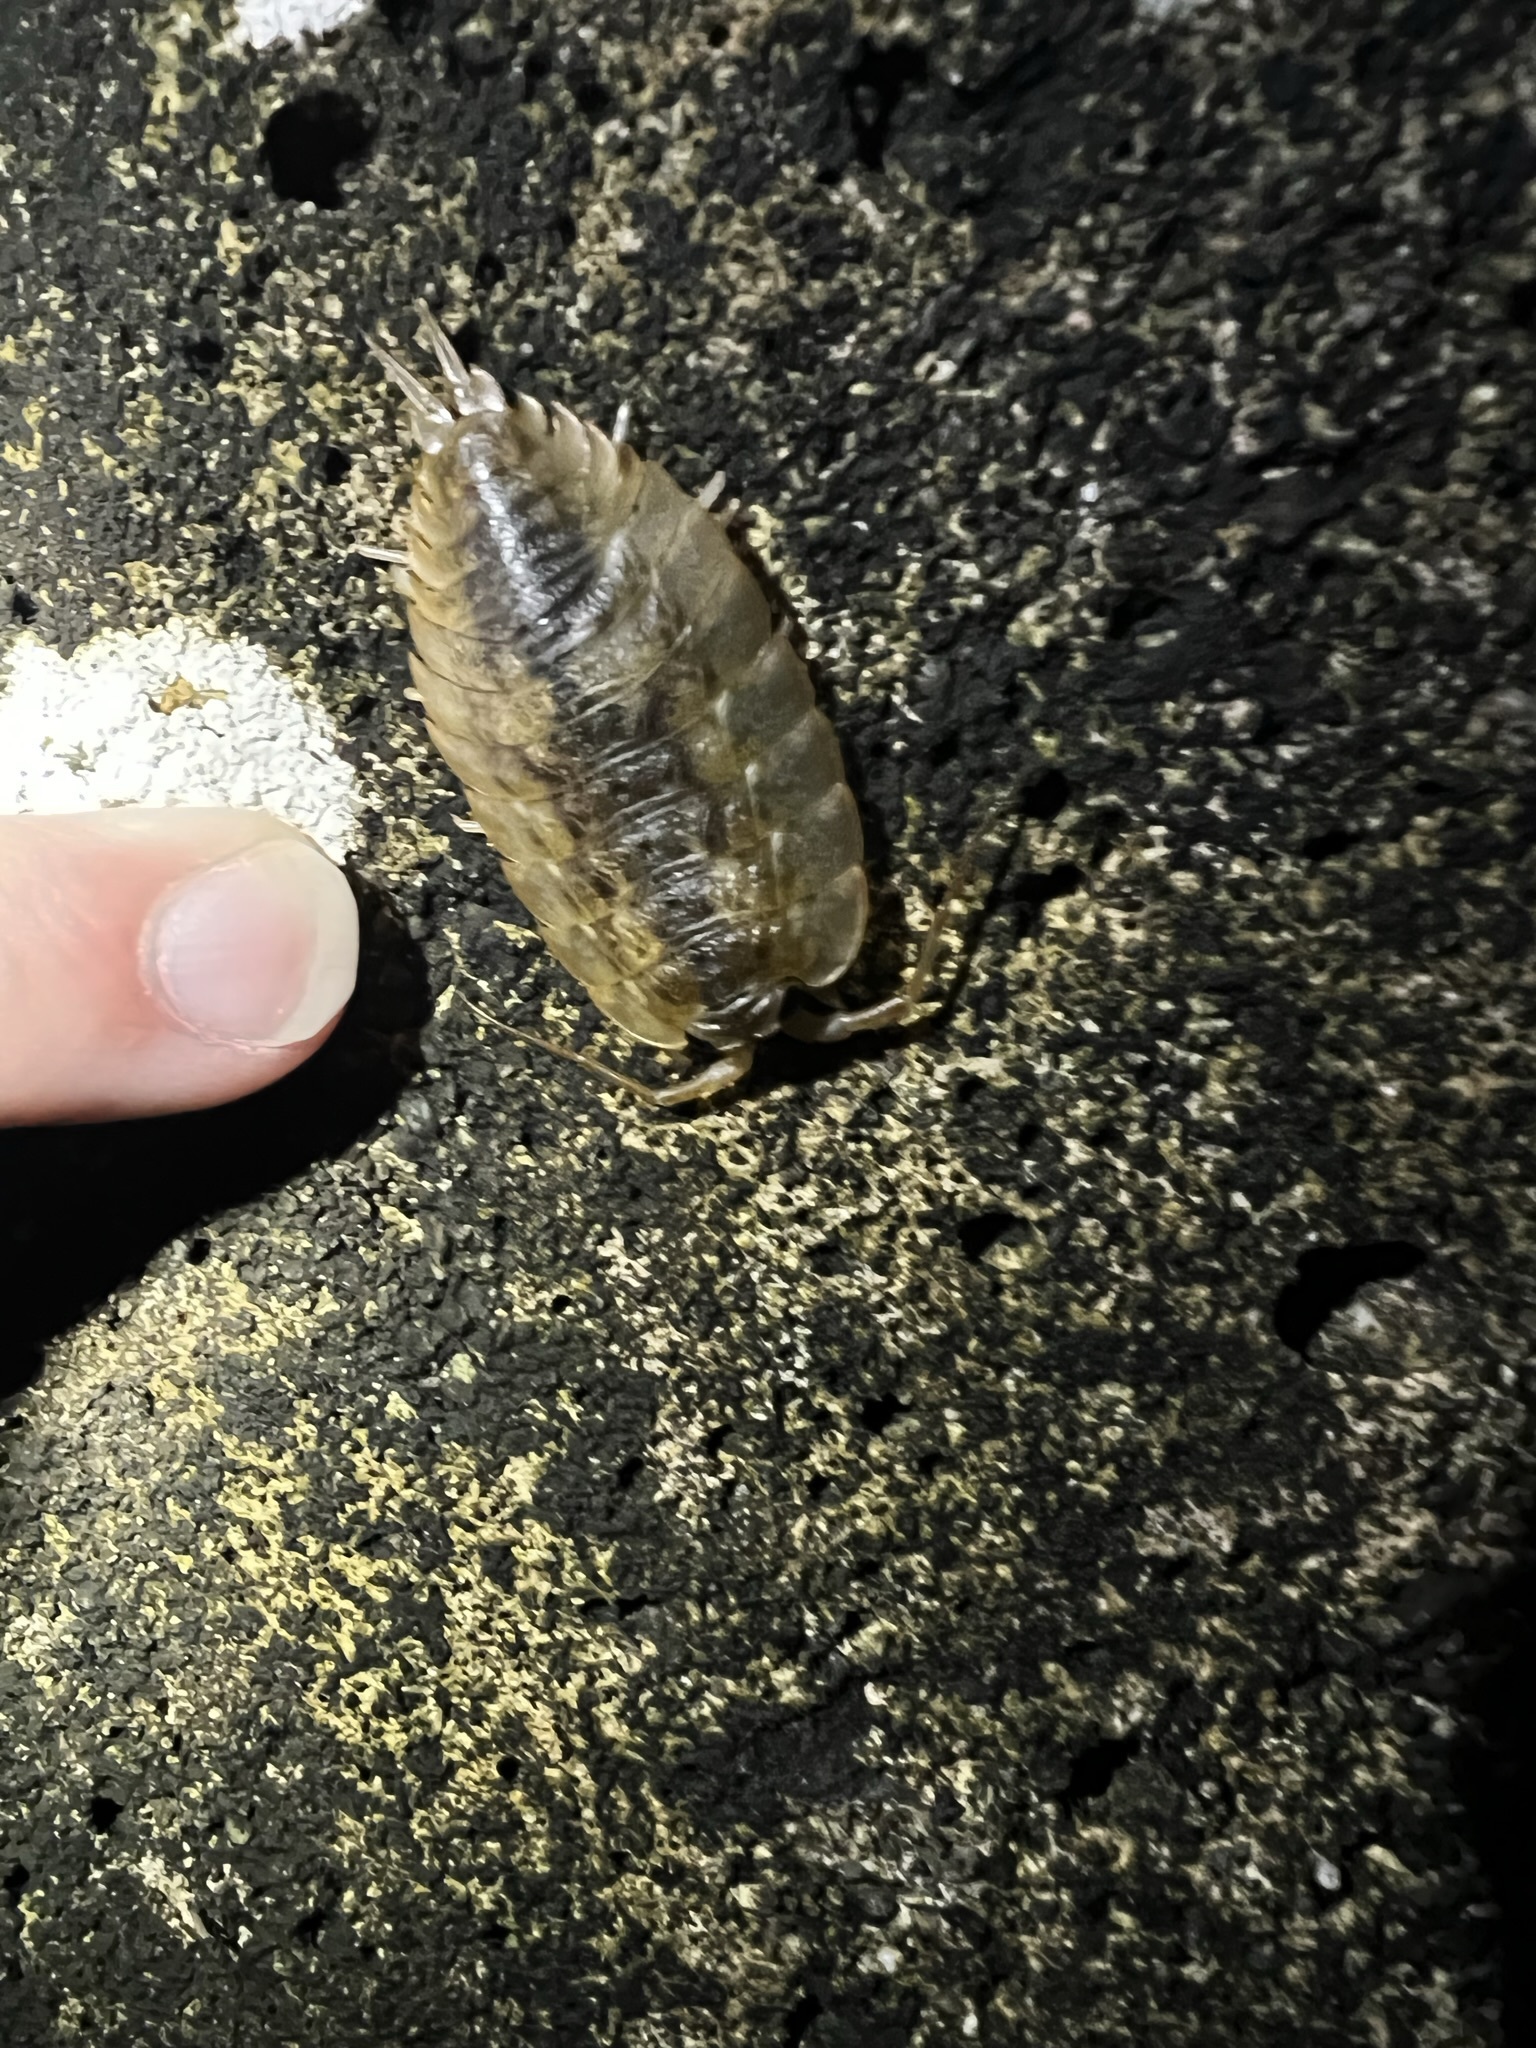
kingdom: Animalia
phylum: Arthropoda
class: Malacostraca
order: Isopoda
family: Ligiidae
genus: Ligia
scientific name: Ligia pallasii
